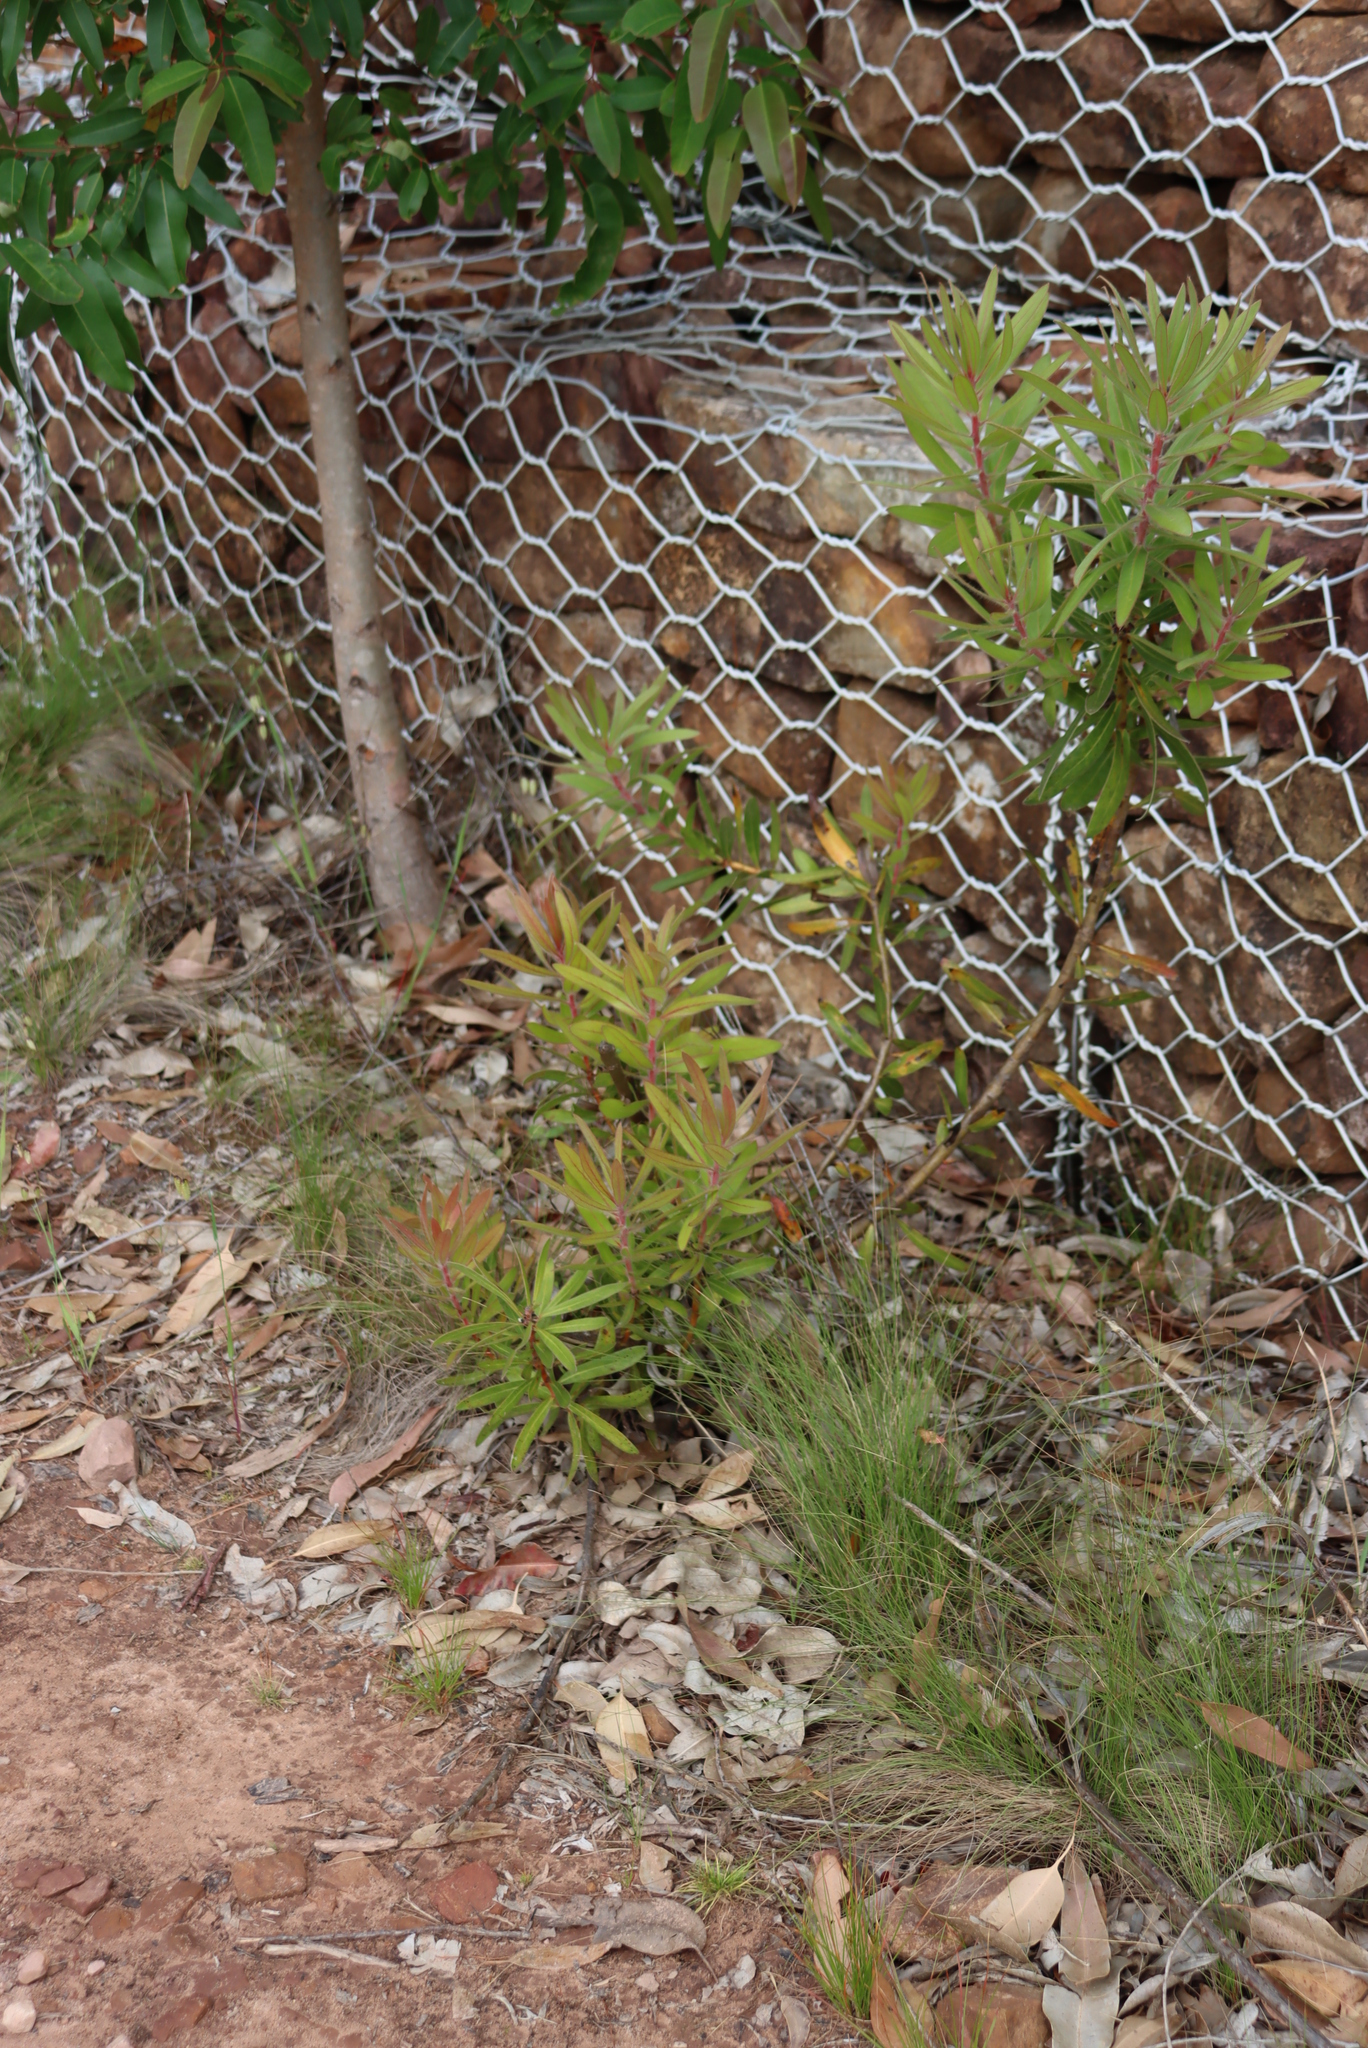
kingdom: Plantae
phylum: Tracheophyta
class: Magnoliopsida
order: Proteales
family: Proteaceae
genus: Protea
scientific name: Protea lepidocarpodendron
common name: Black-bearded protea
